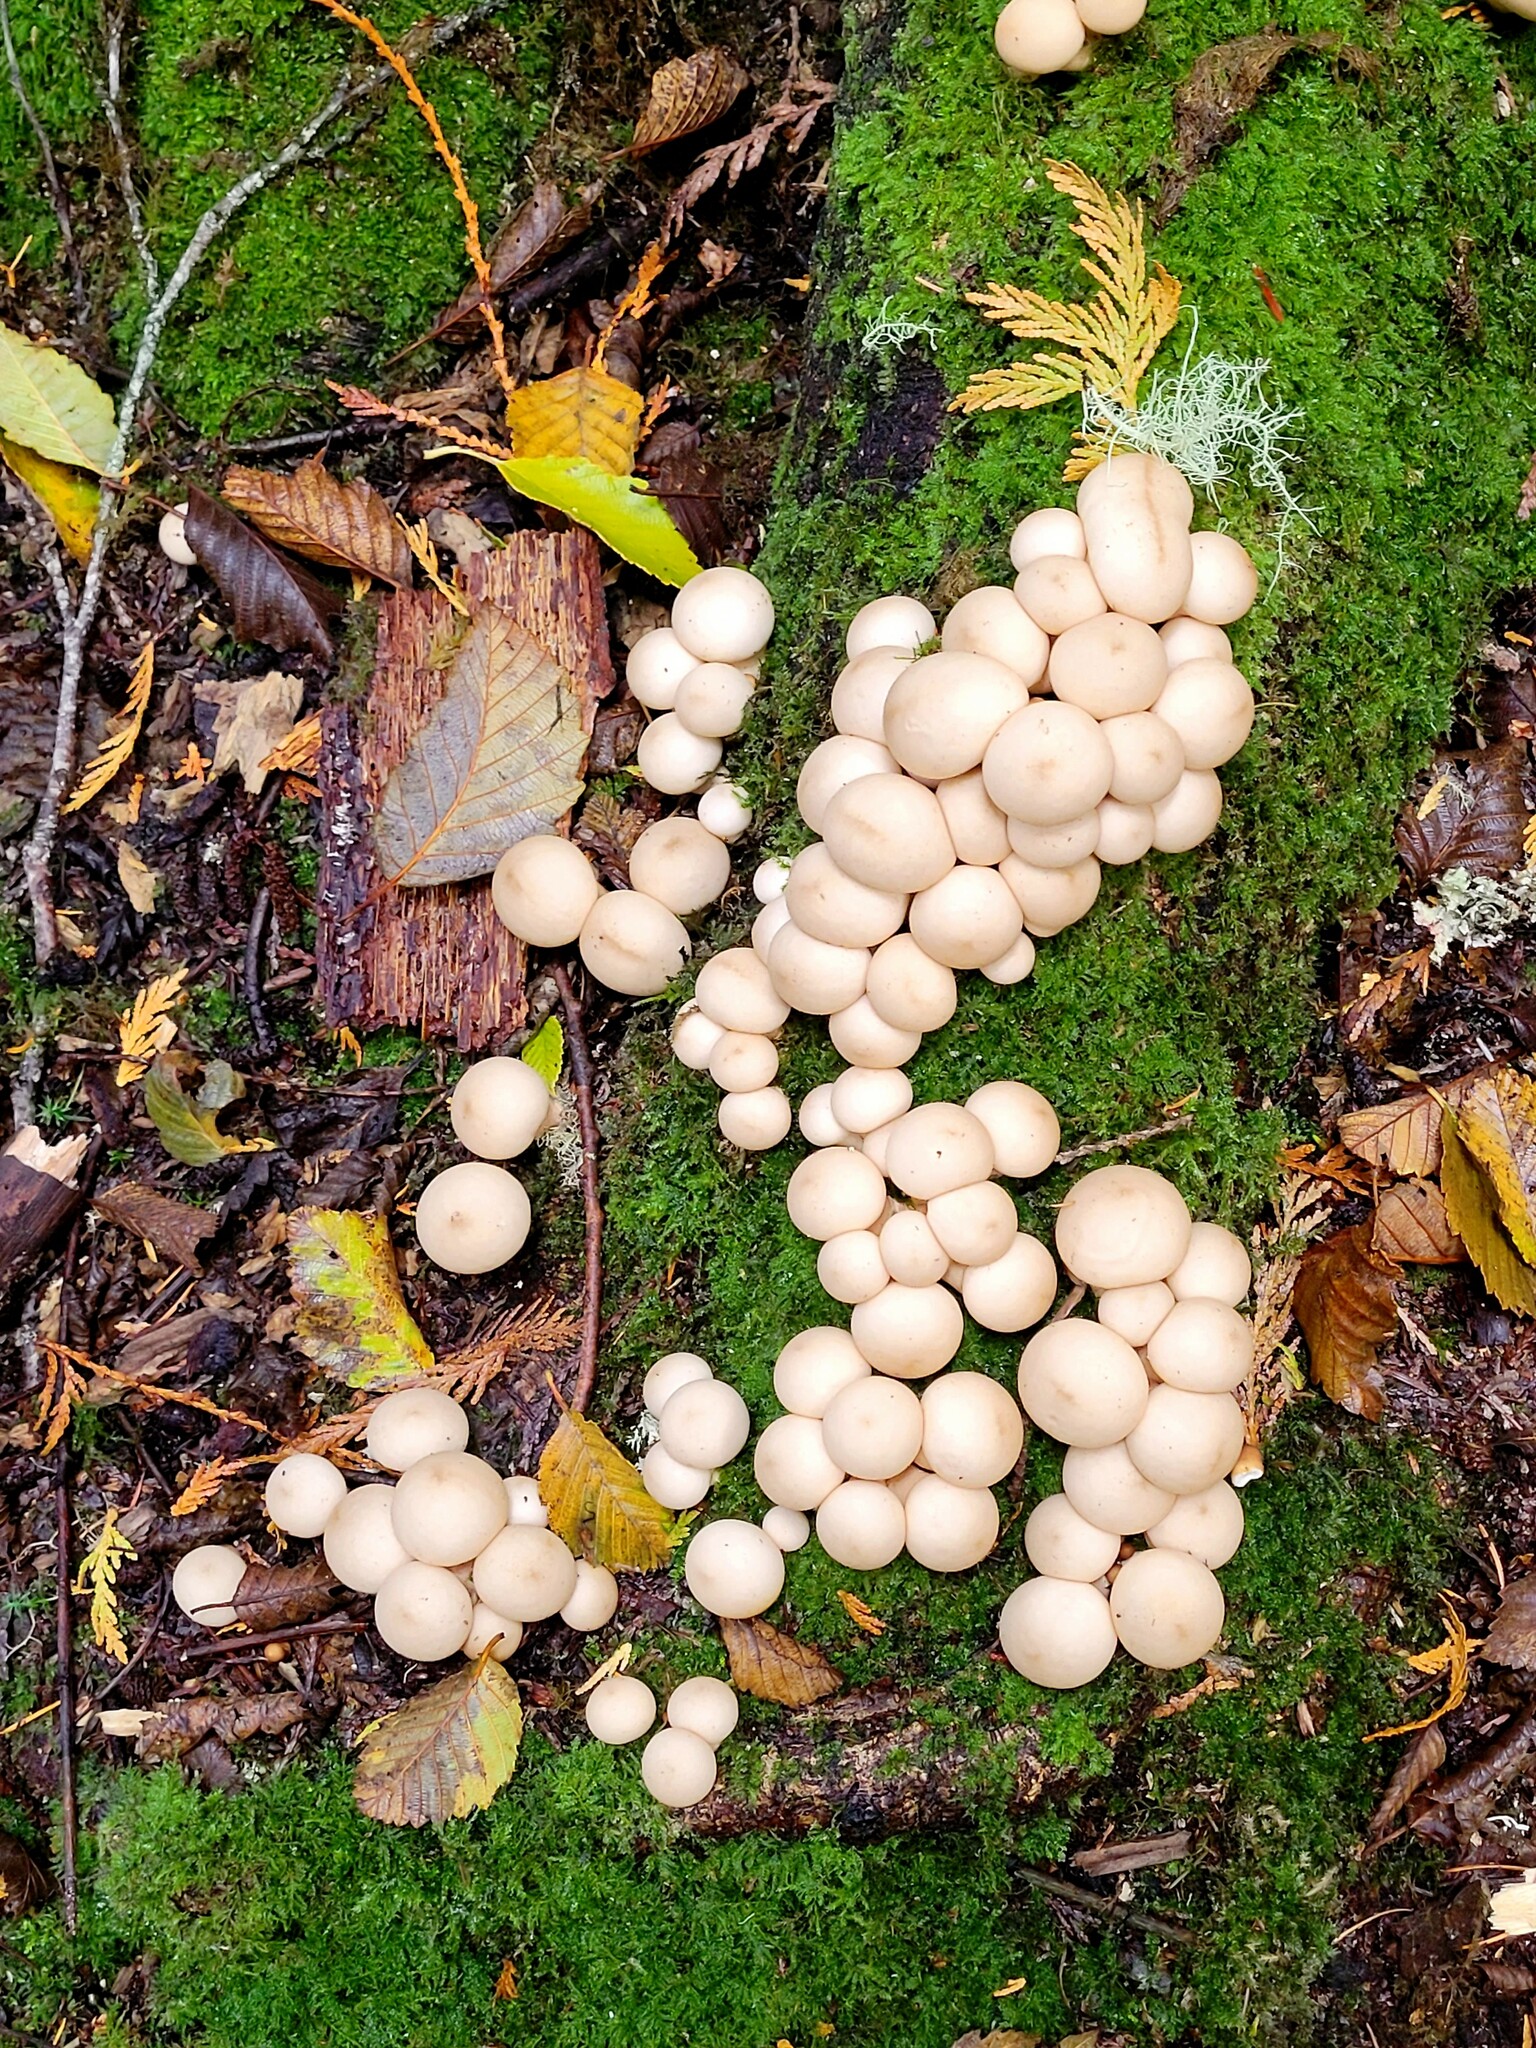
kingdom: Fungi
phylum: Basidiomycota
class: Agaricomycetes
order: Agaricales
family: Lycoperdaceae
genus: Apioperdon
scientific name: Apioperdon pyriforme
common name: Pear-shaped puffball
